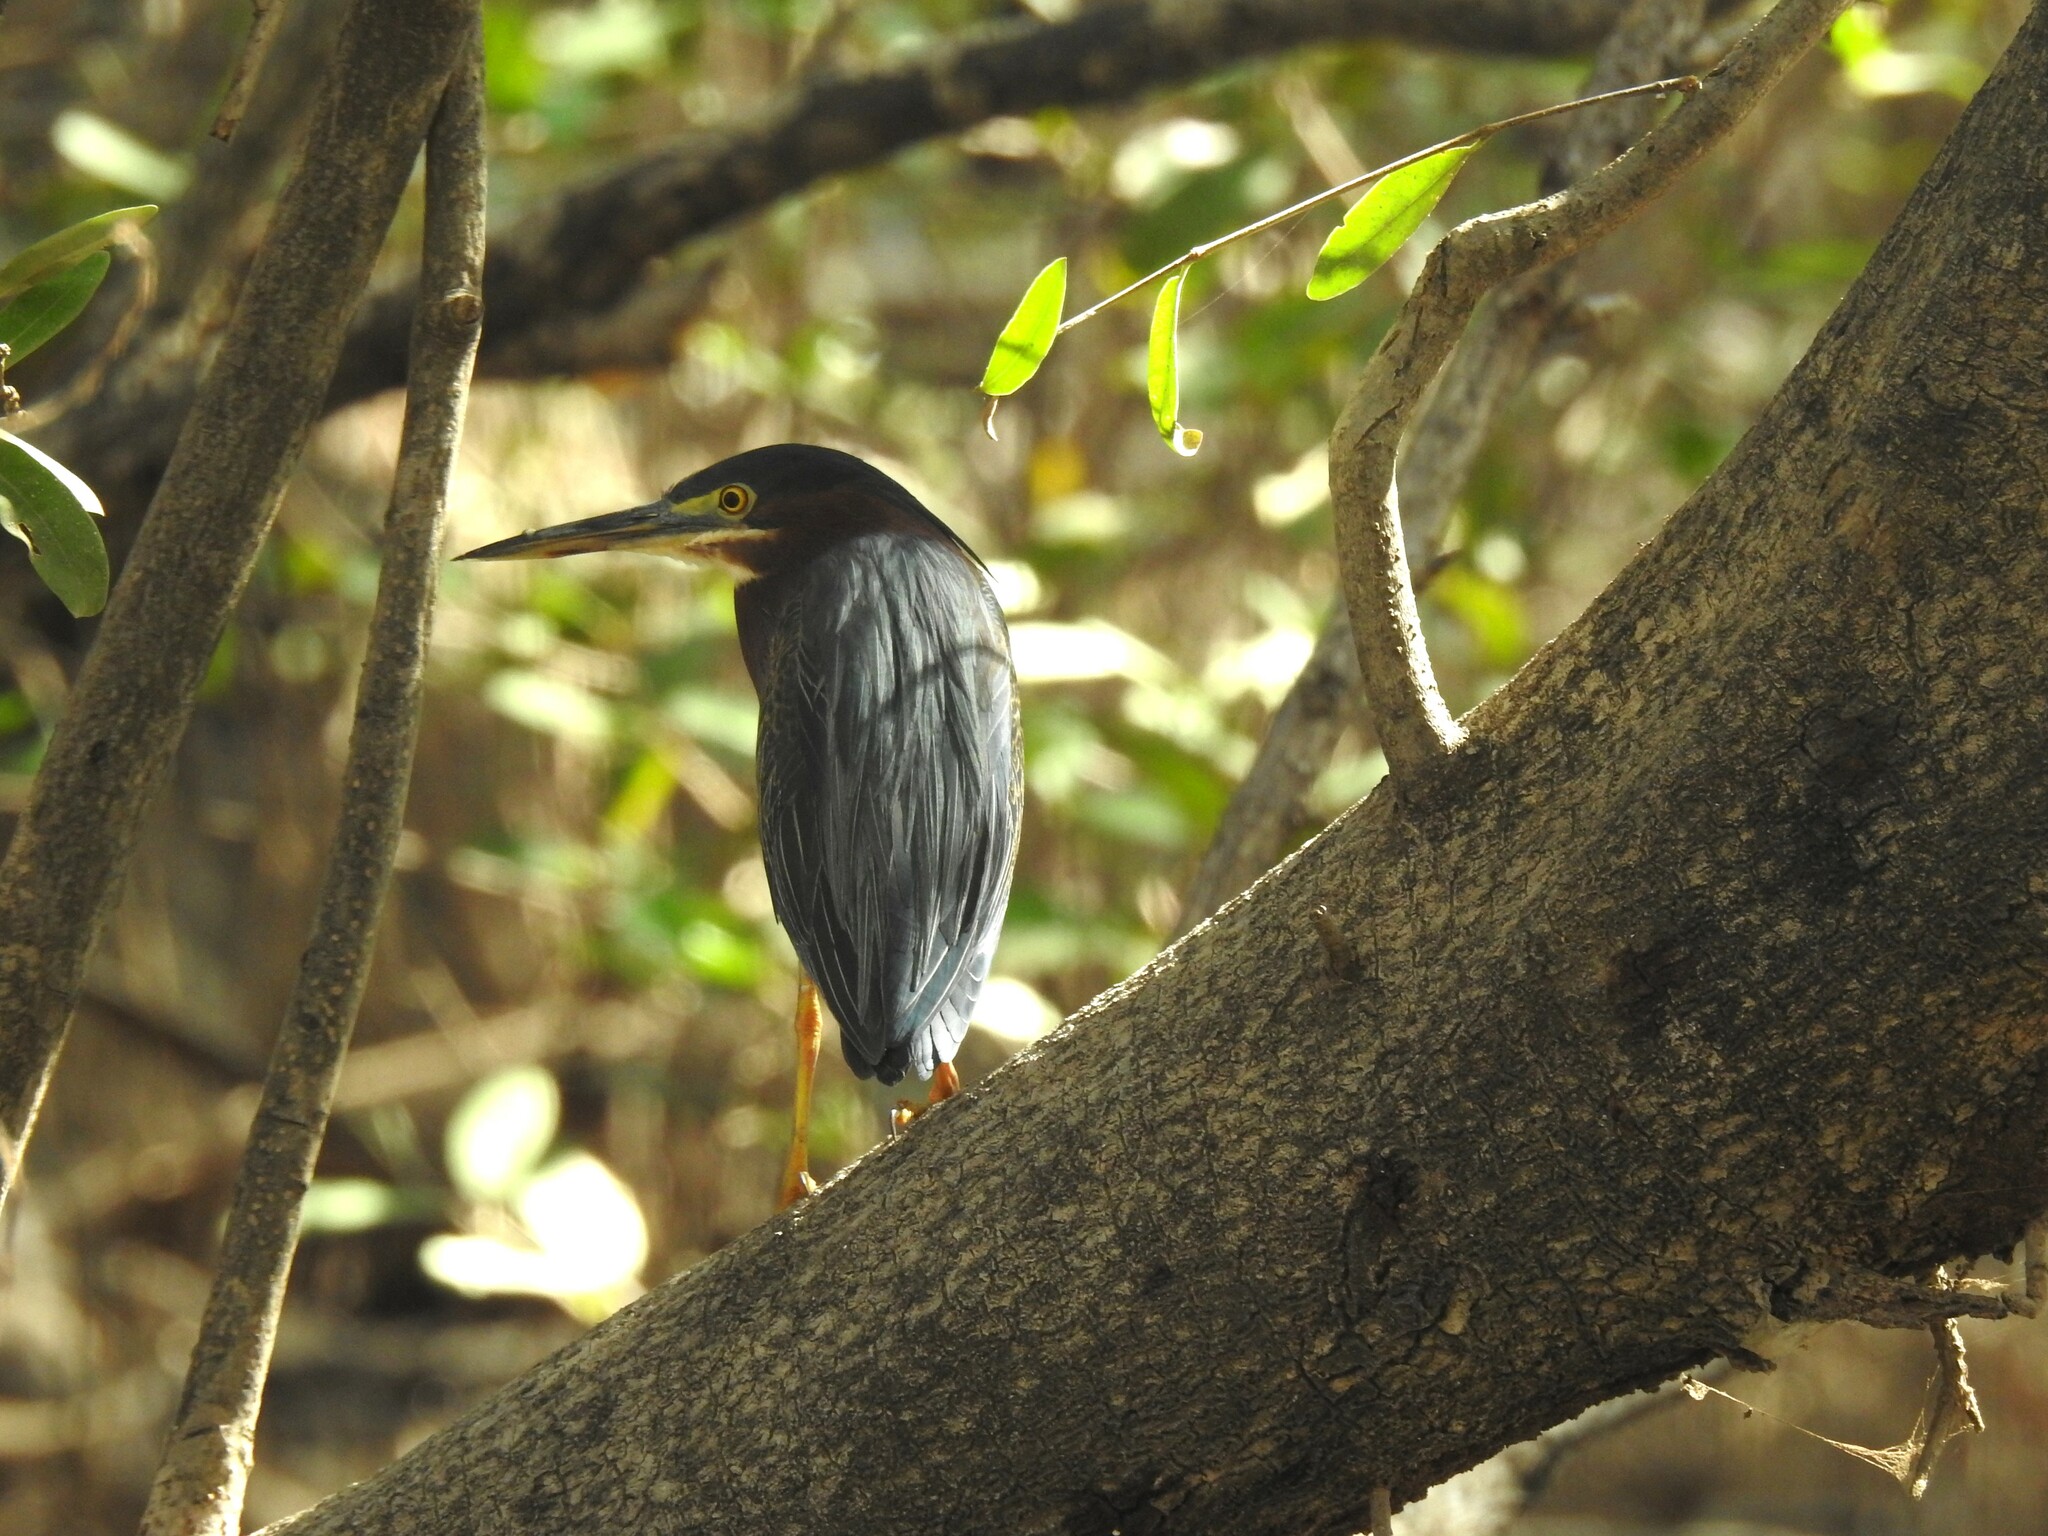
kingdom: Animalia
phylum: Chordata
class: Aves
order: Pelecaniformes
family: Ardeidae
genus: Butorides
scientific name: Butorides virescens
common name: Green heron
